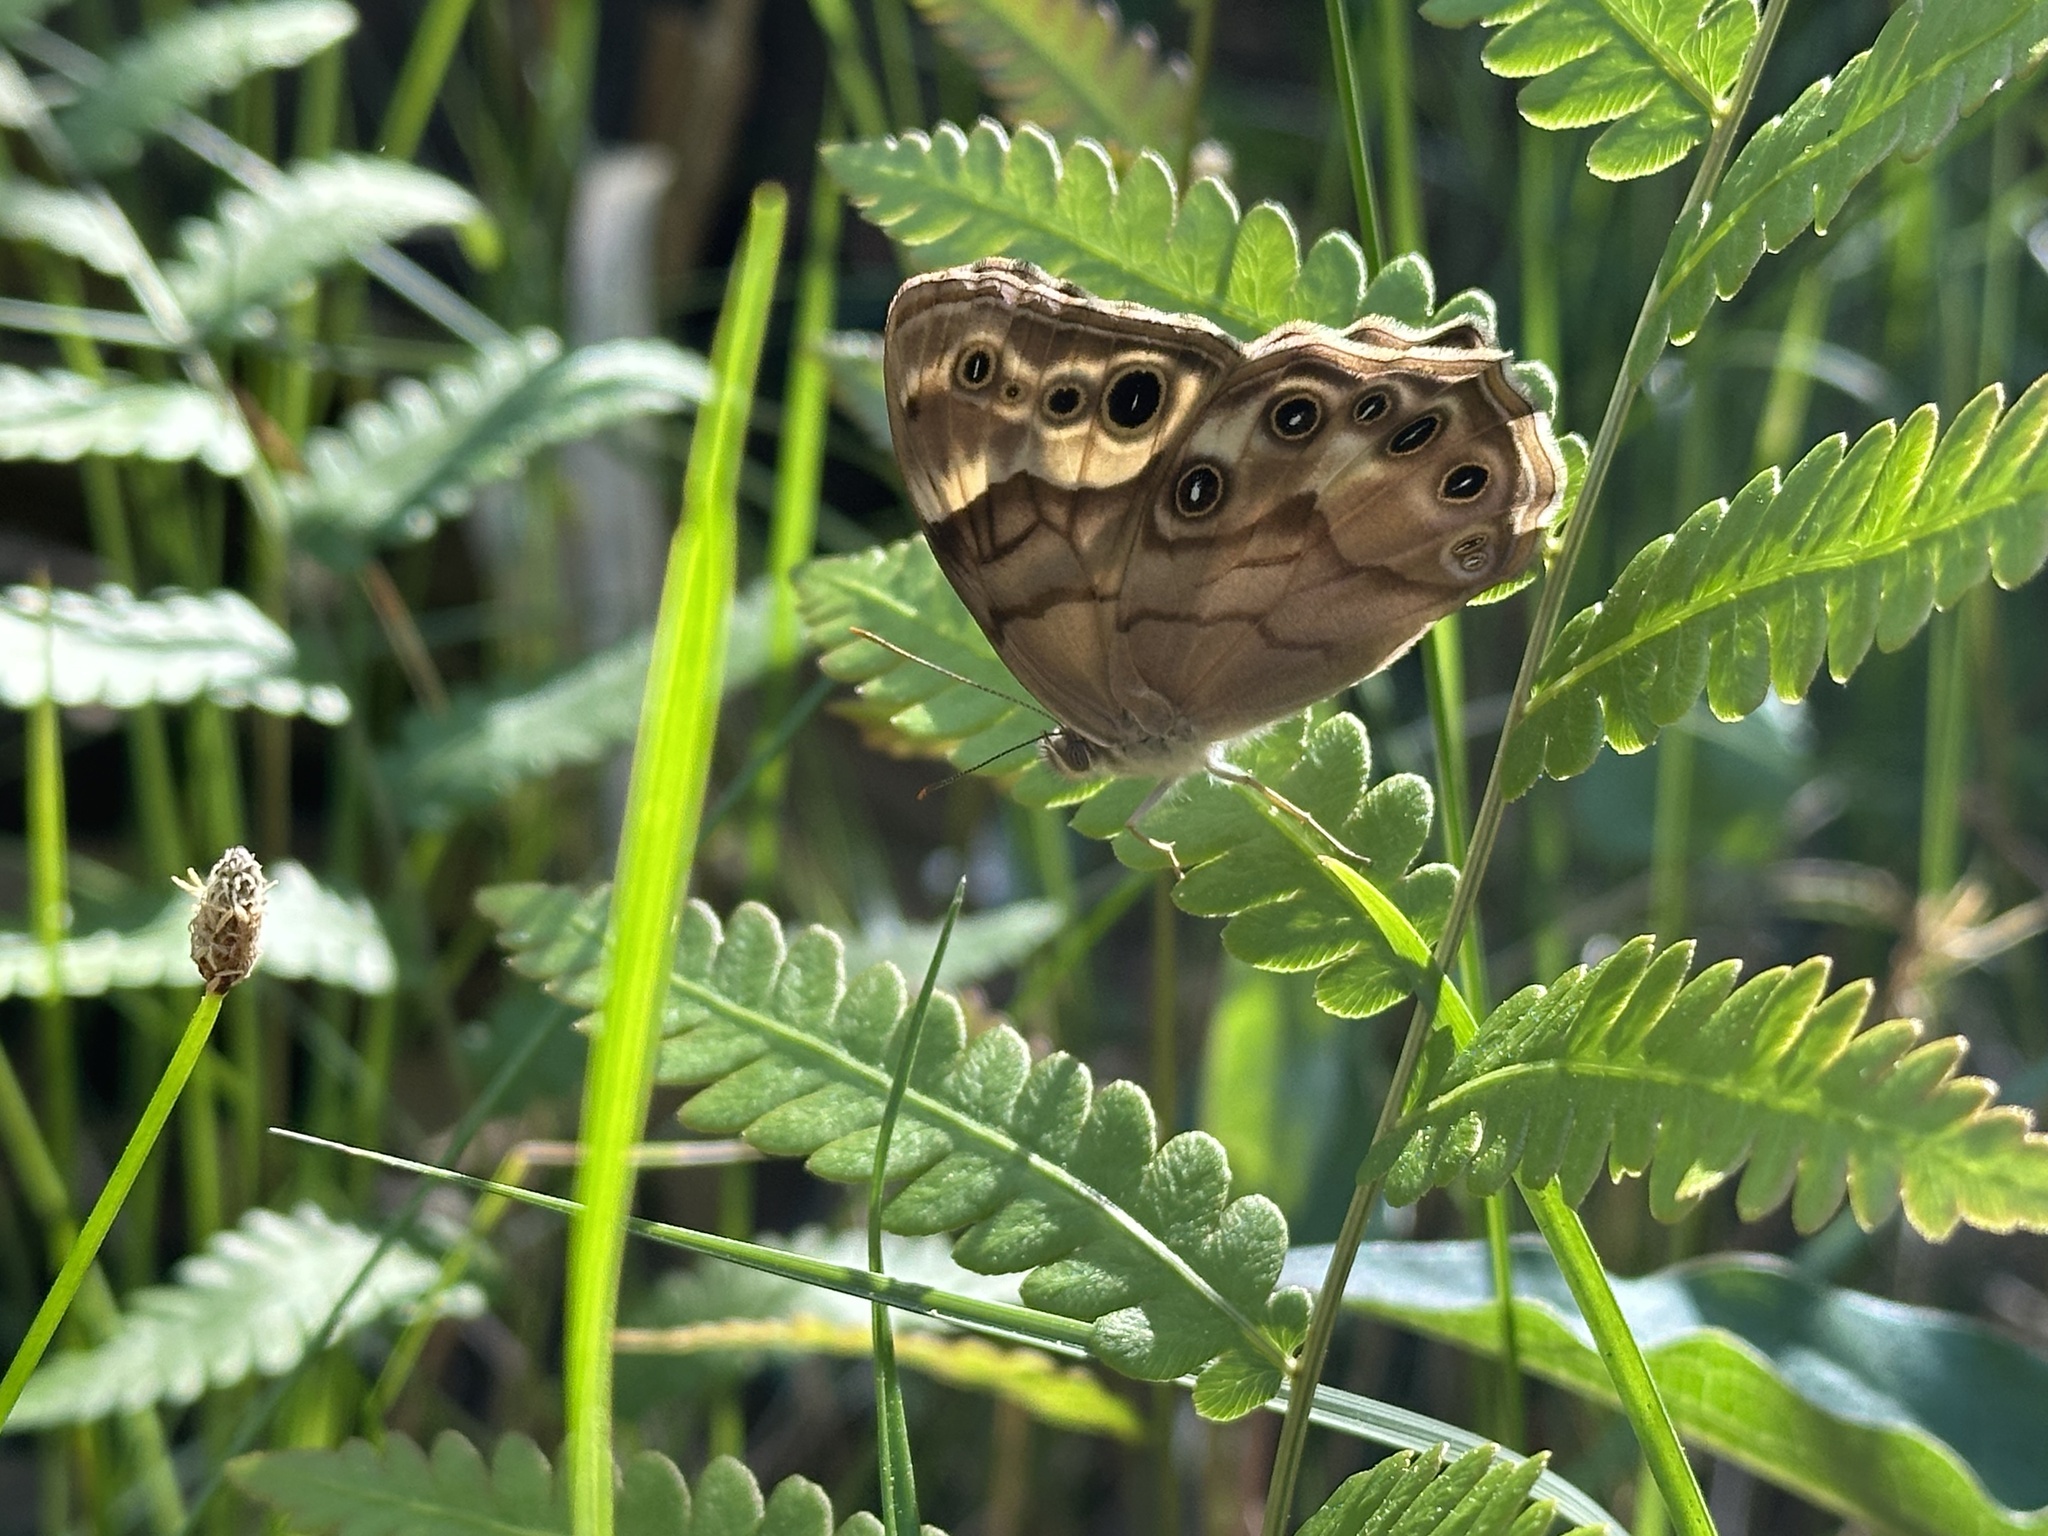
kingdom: Animalia
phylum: Arthropoda
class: Insecta
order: Lepidoptera
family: Nymphalidae
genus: Enodia
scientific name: Enodia portlandia
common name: Southern pearly-eye
